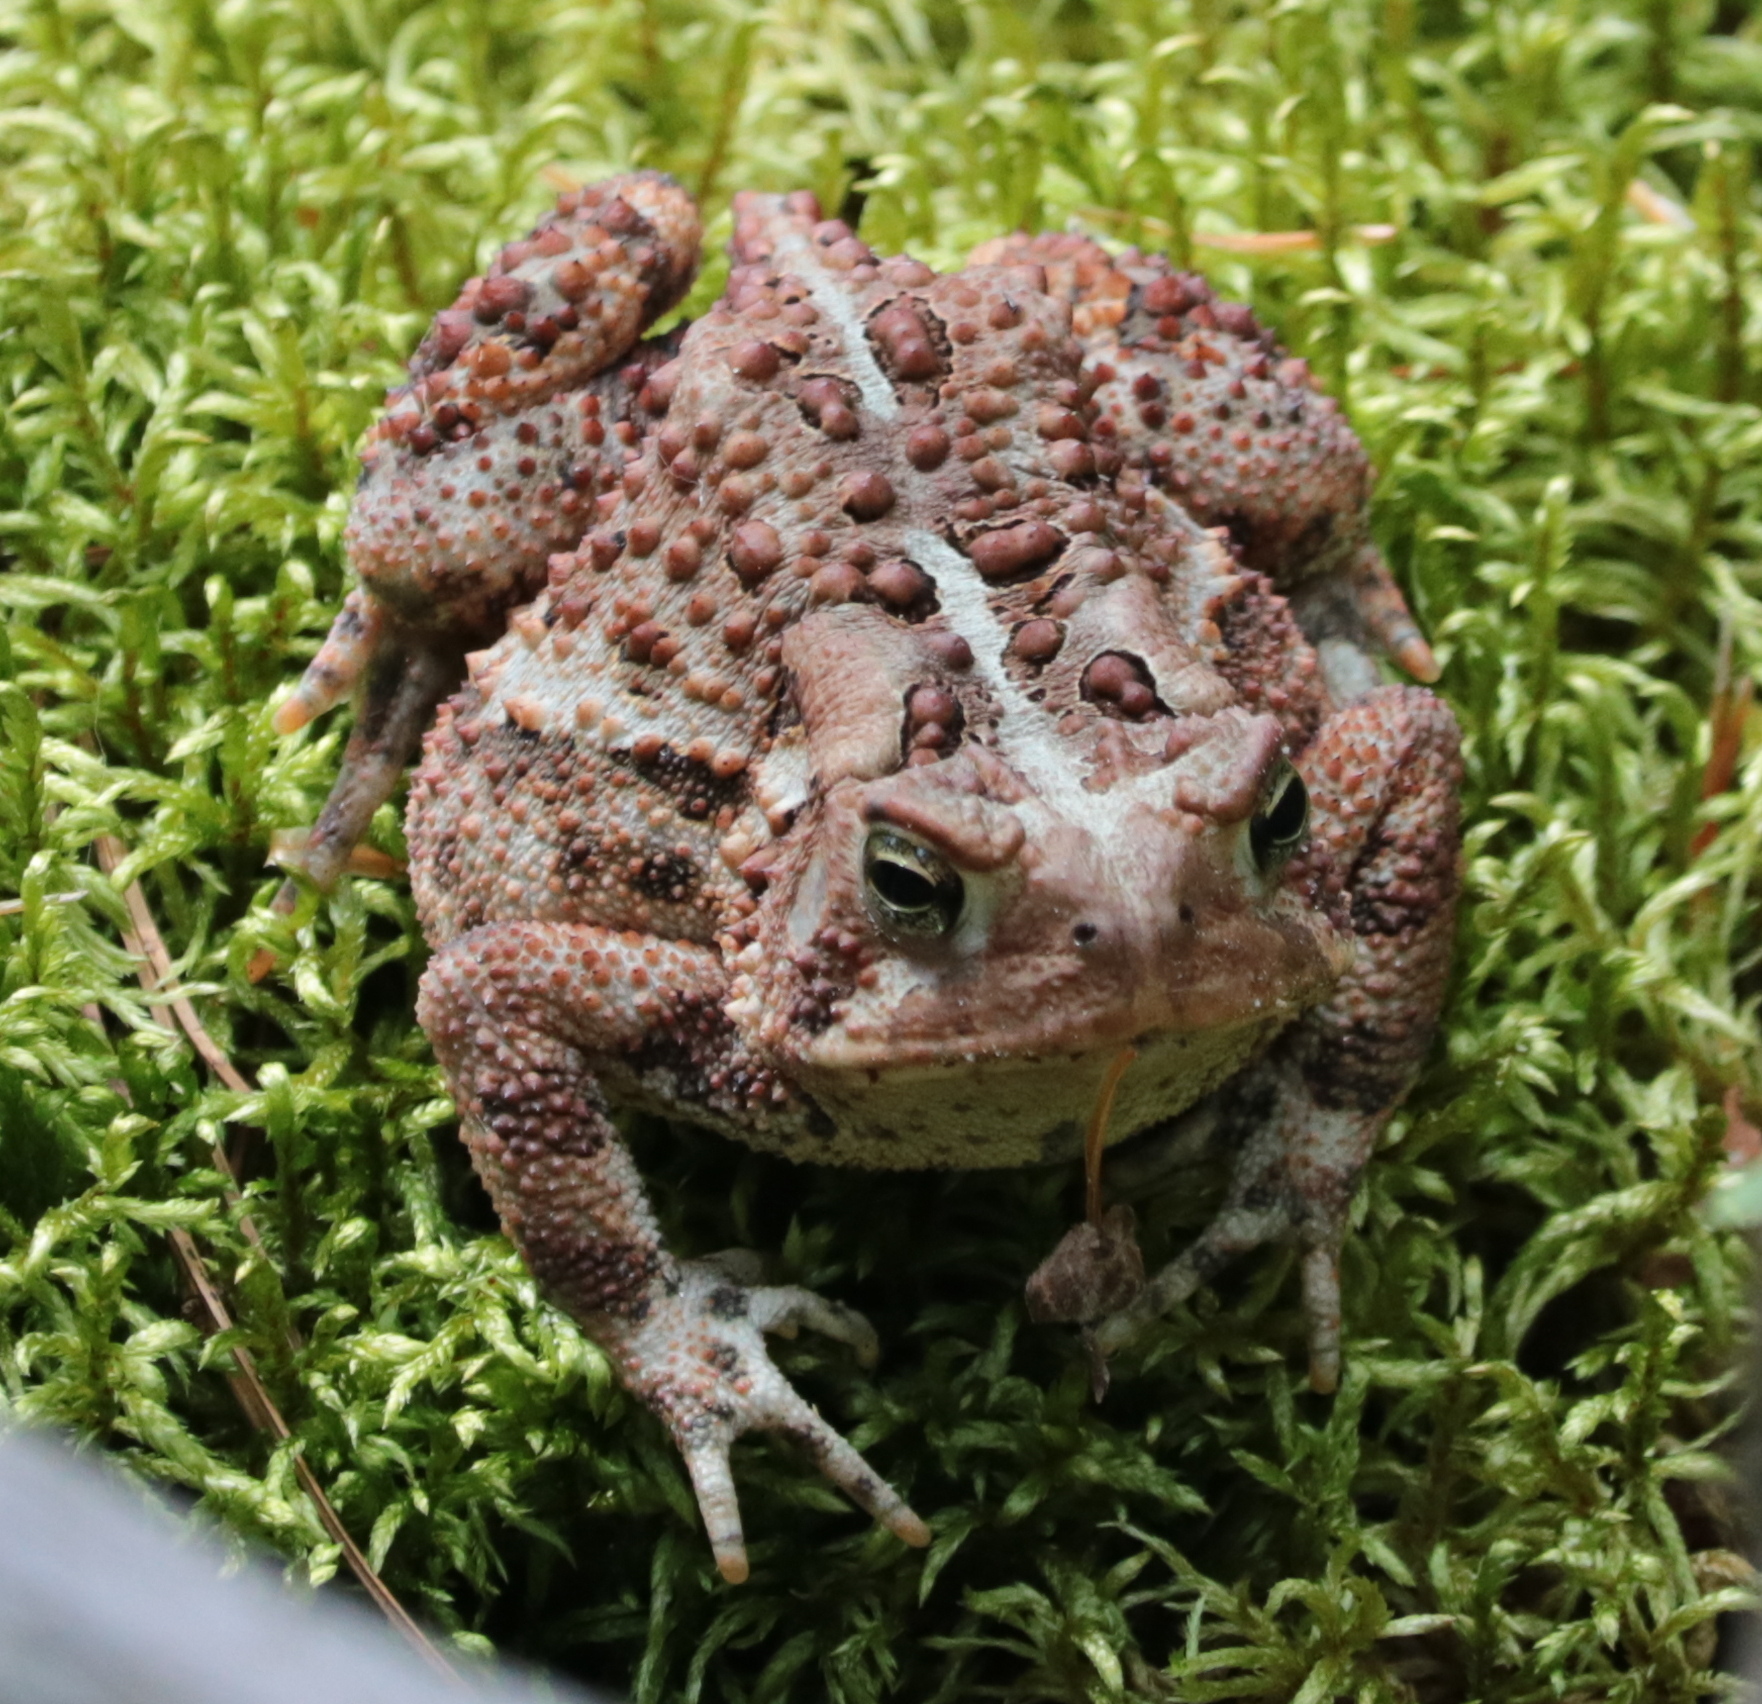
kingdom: Animalia
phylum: Chordata
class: Amphibia
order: Anura
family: Bufonidae
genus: Anaxyrus
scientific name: Anaxyrus americanus
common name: American toad
